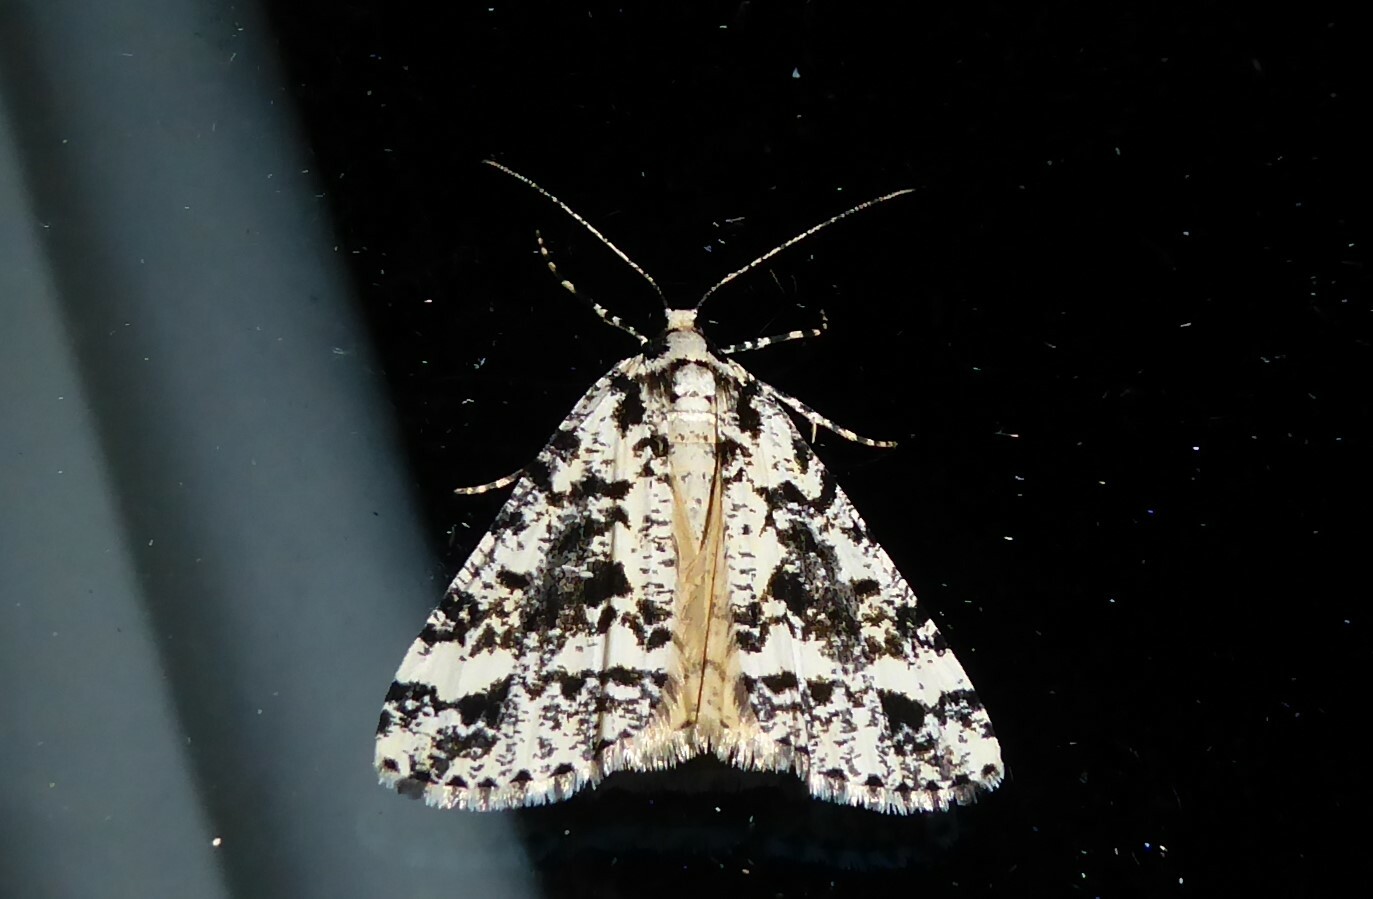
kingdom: Animalia
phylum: Arthropoda
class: Insecta
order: Lepidoptera
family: Geometridae
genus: Pseudocoremia
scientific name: Pseudocoremia leucelaea
